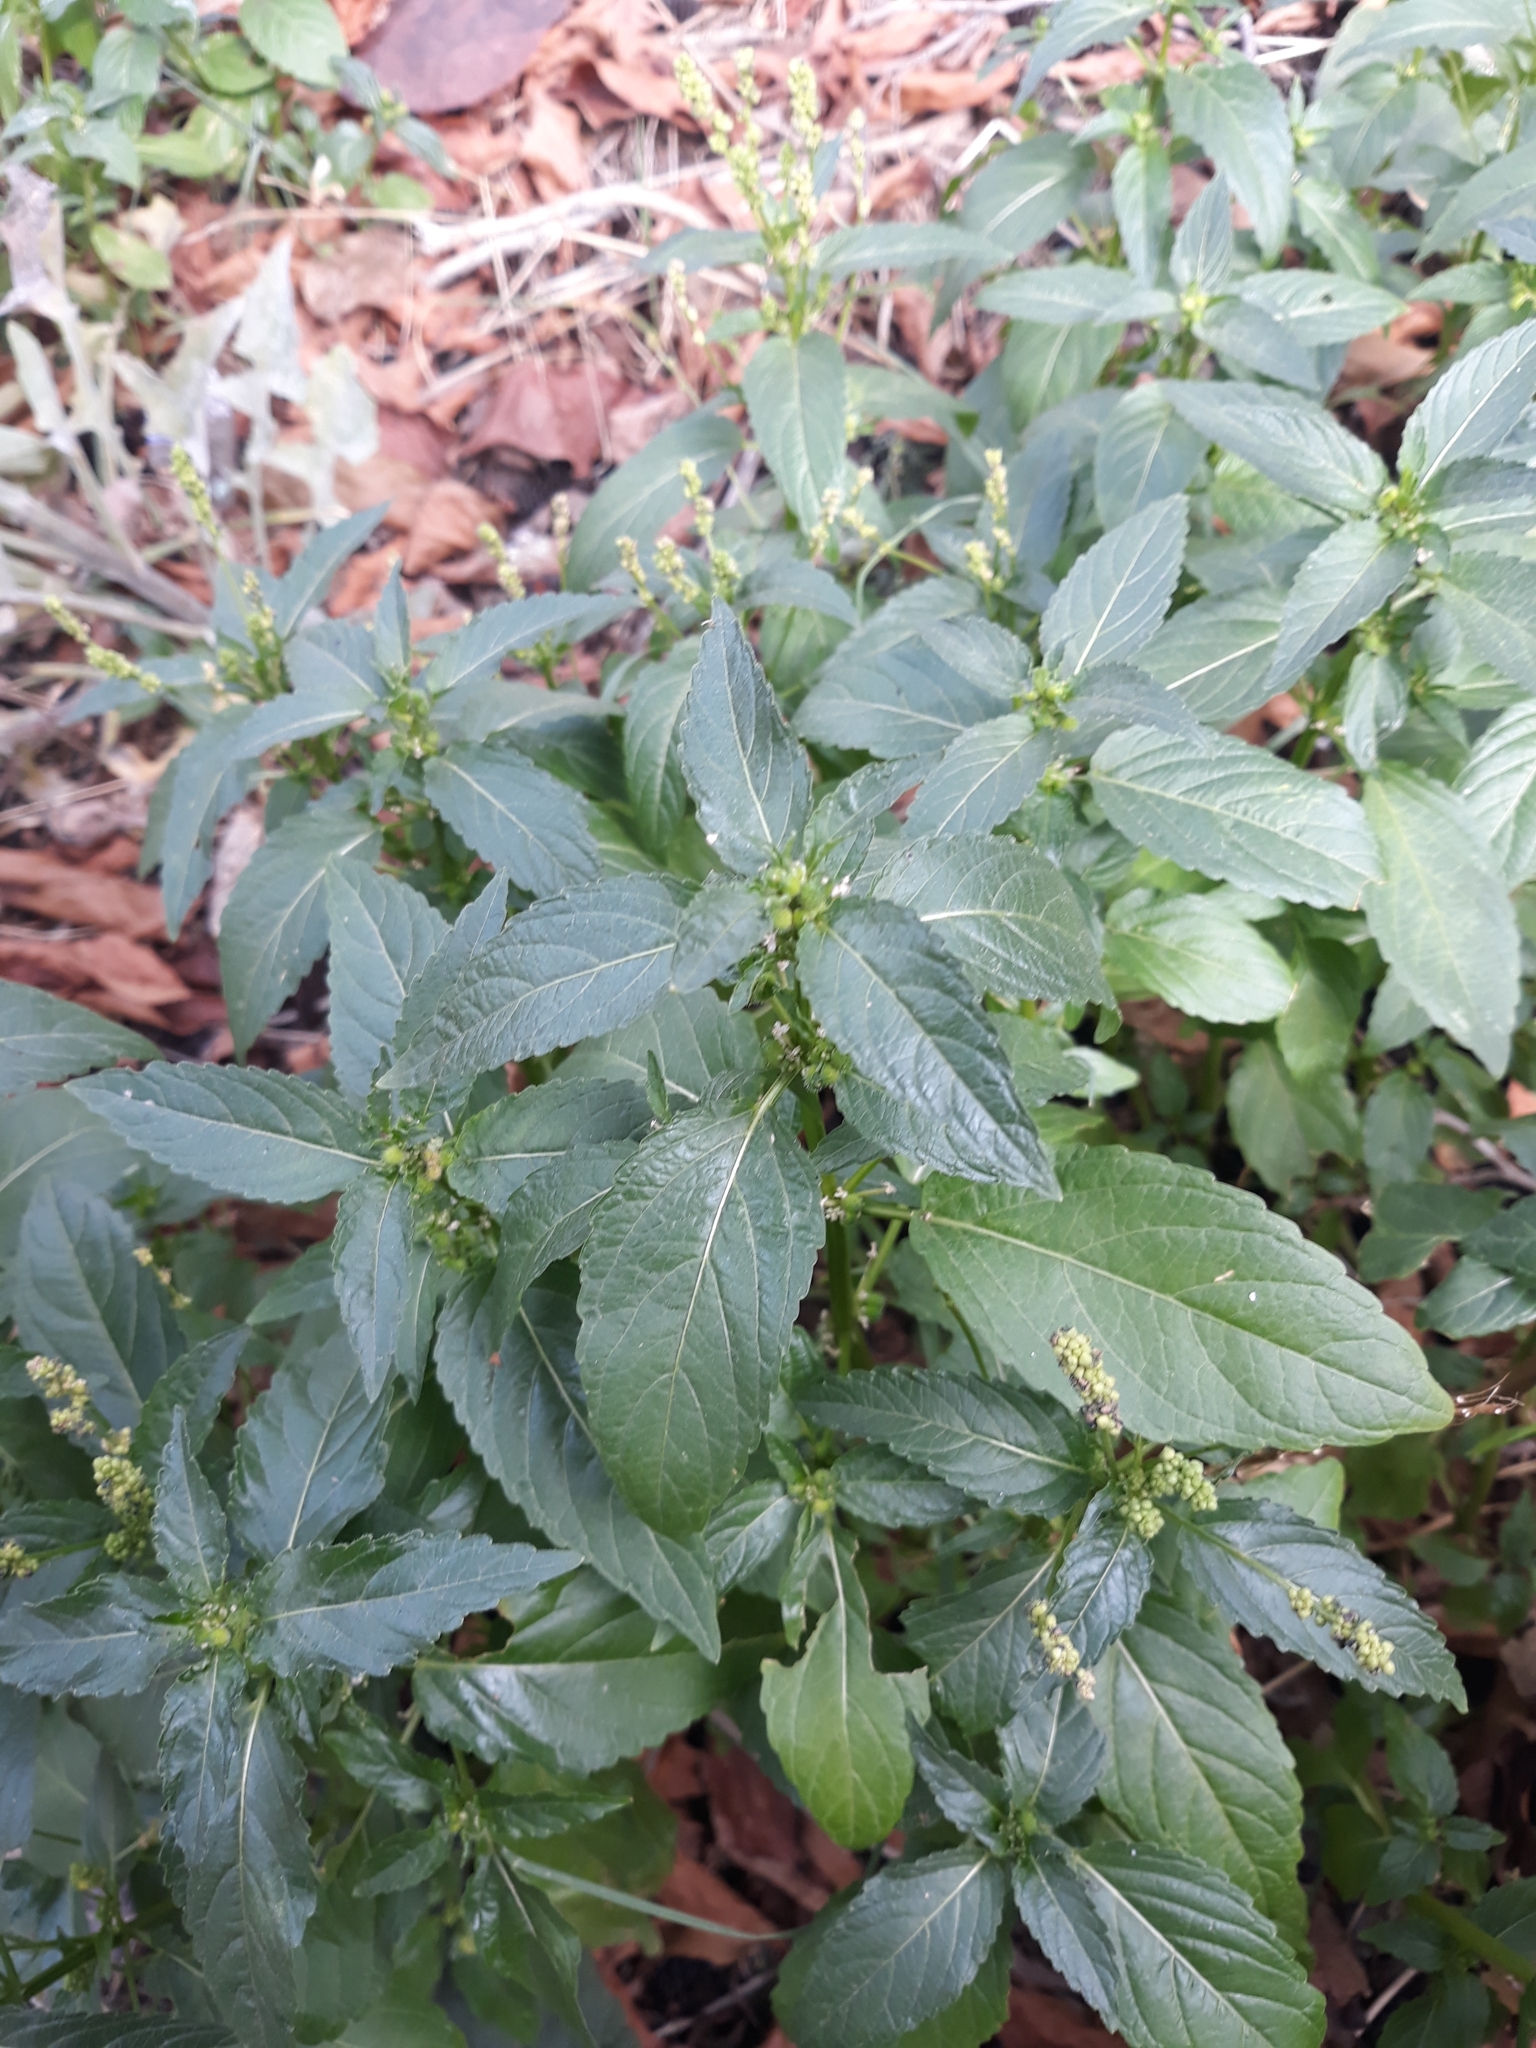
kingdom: Plantae
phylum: Tracheophyta
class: Magnoliopsida
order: Malpighiales
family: Euphorbiaceae
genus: Mercurialis
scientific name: Mercurialis annua
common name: Annual mercury
